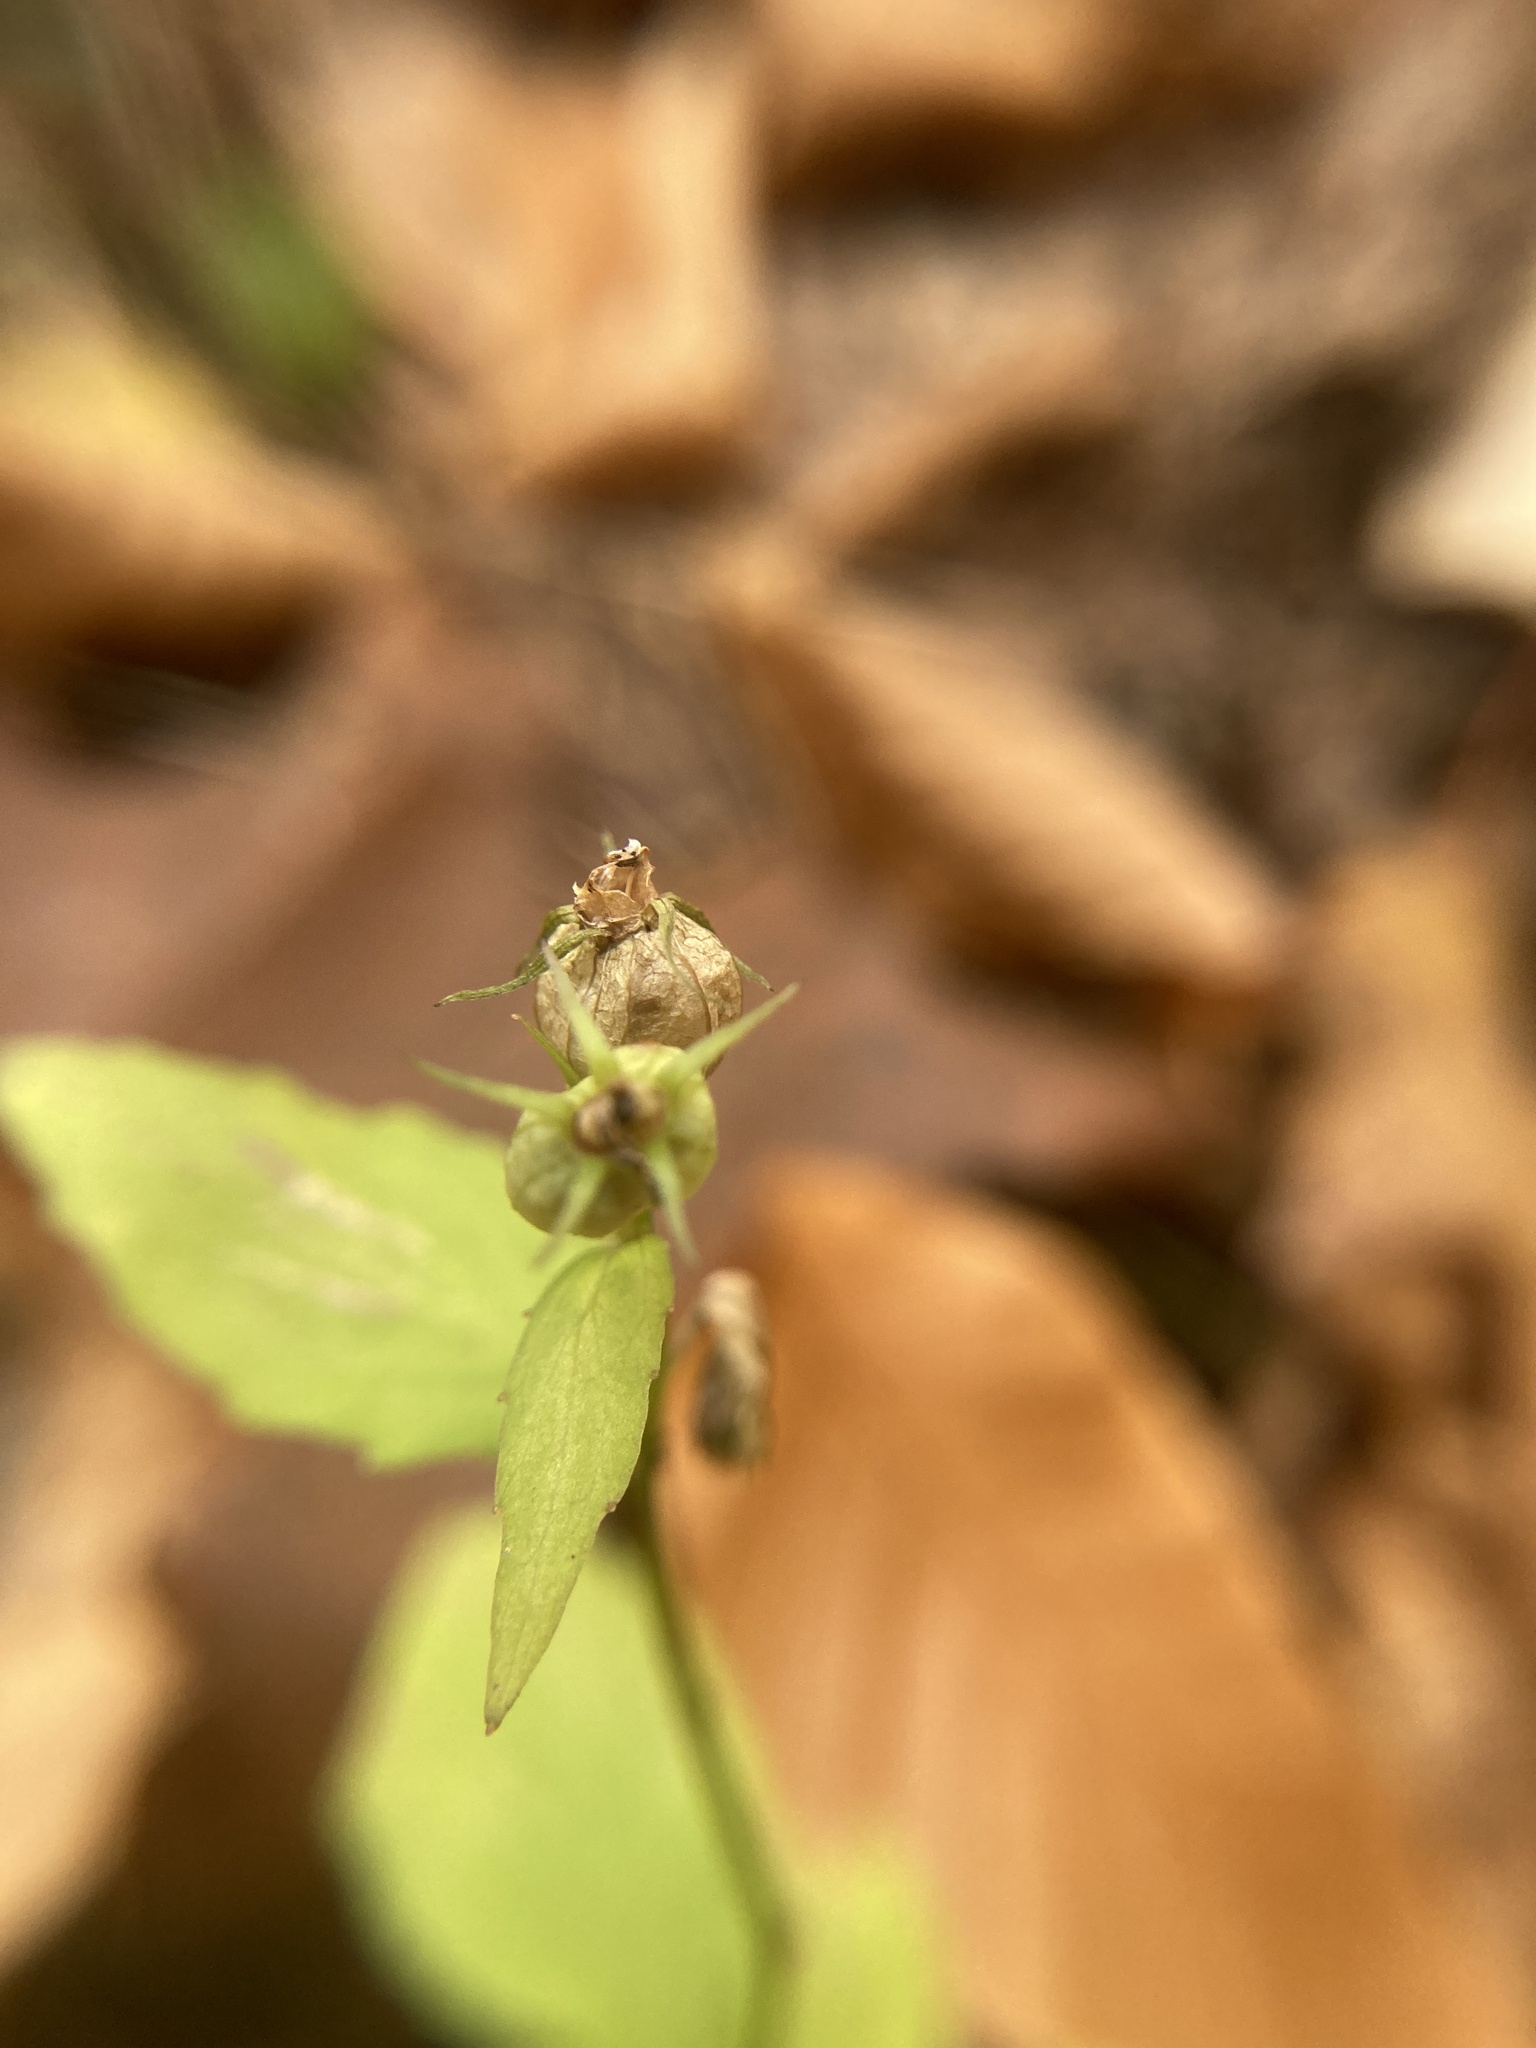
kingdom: Plantae
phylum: Tracheophyta
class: Magnoliopsida
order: Asterales
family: Campanulaceae
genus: Lobelia
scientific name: Lobelia inflata
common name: Indian tobacco
